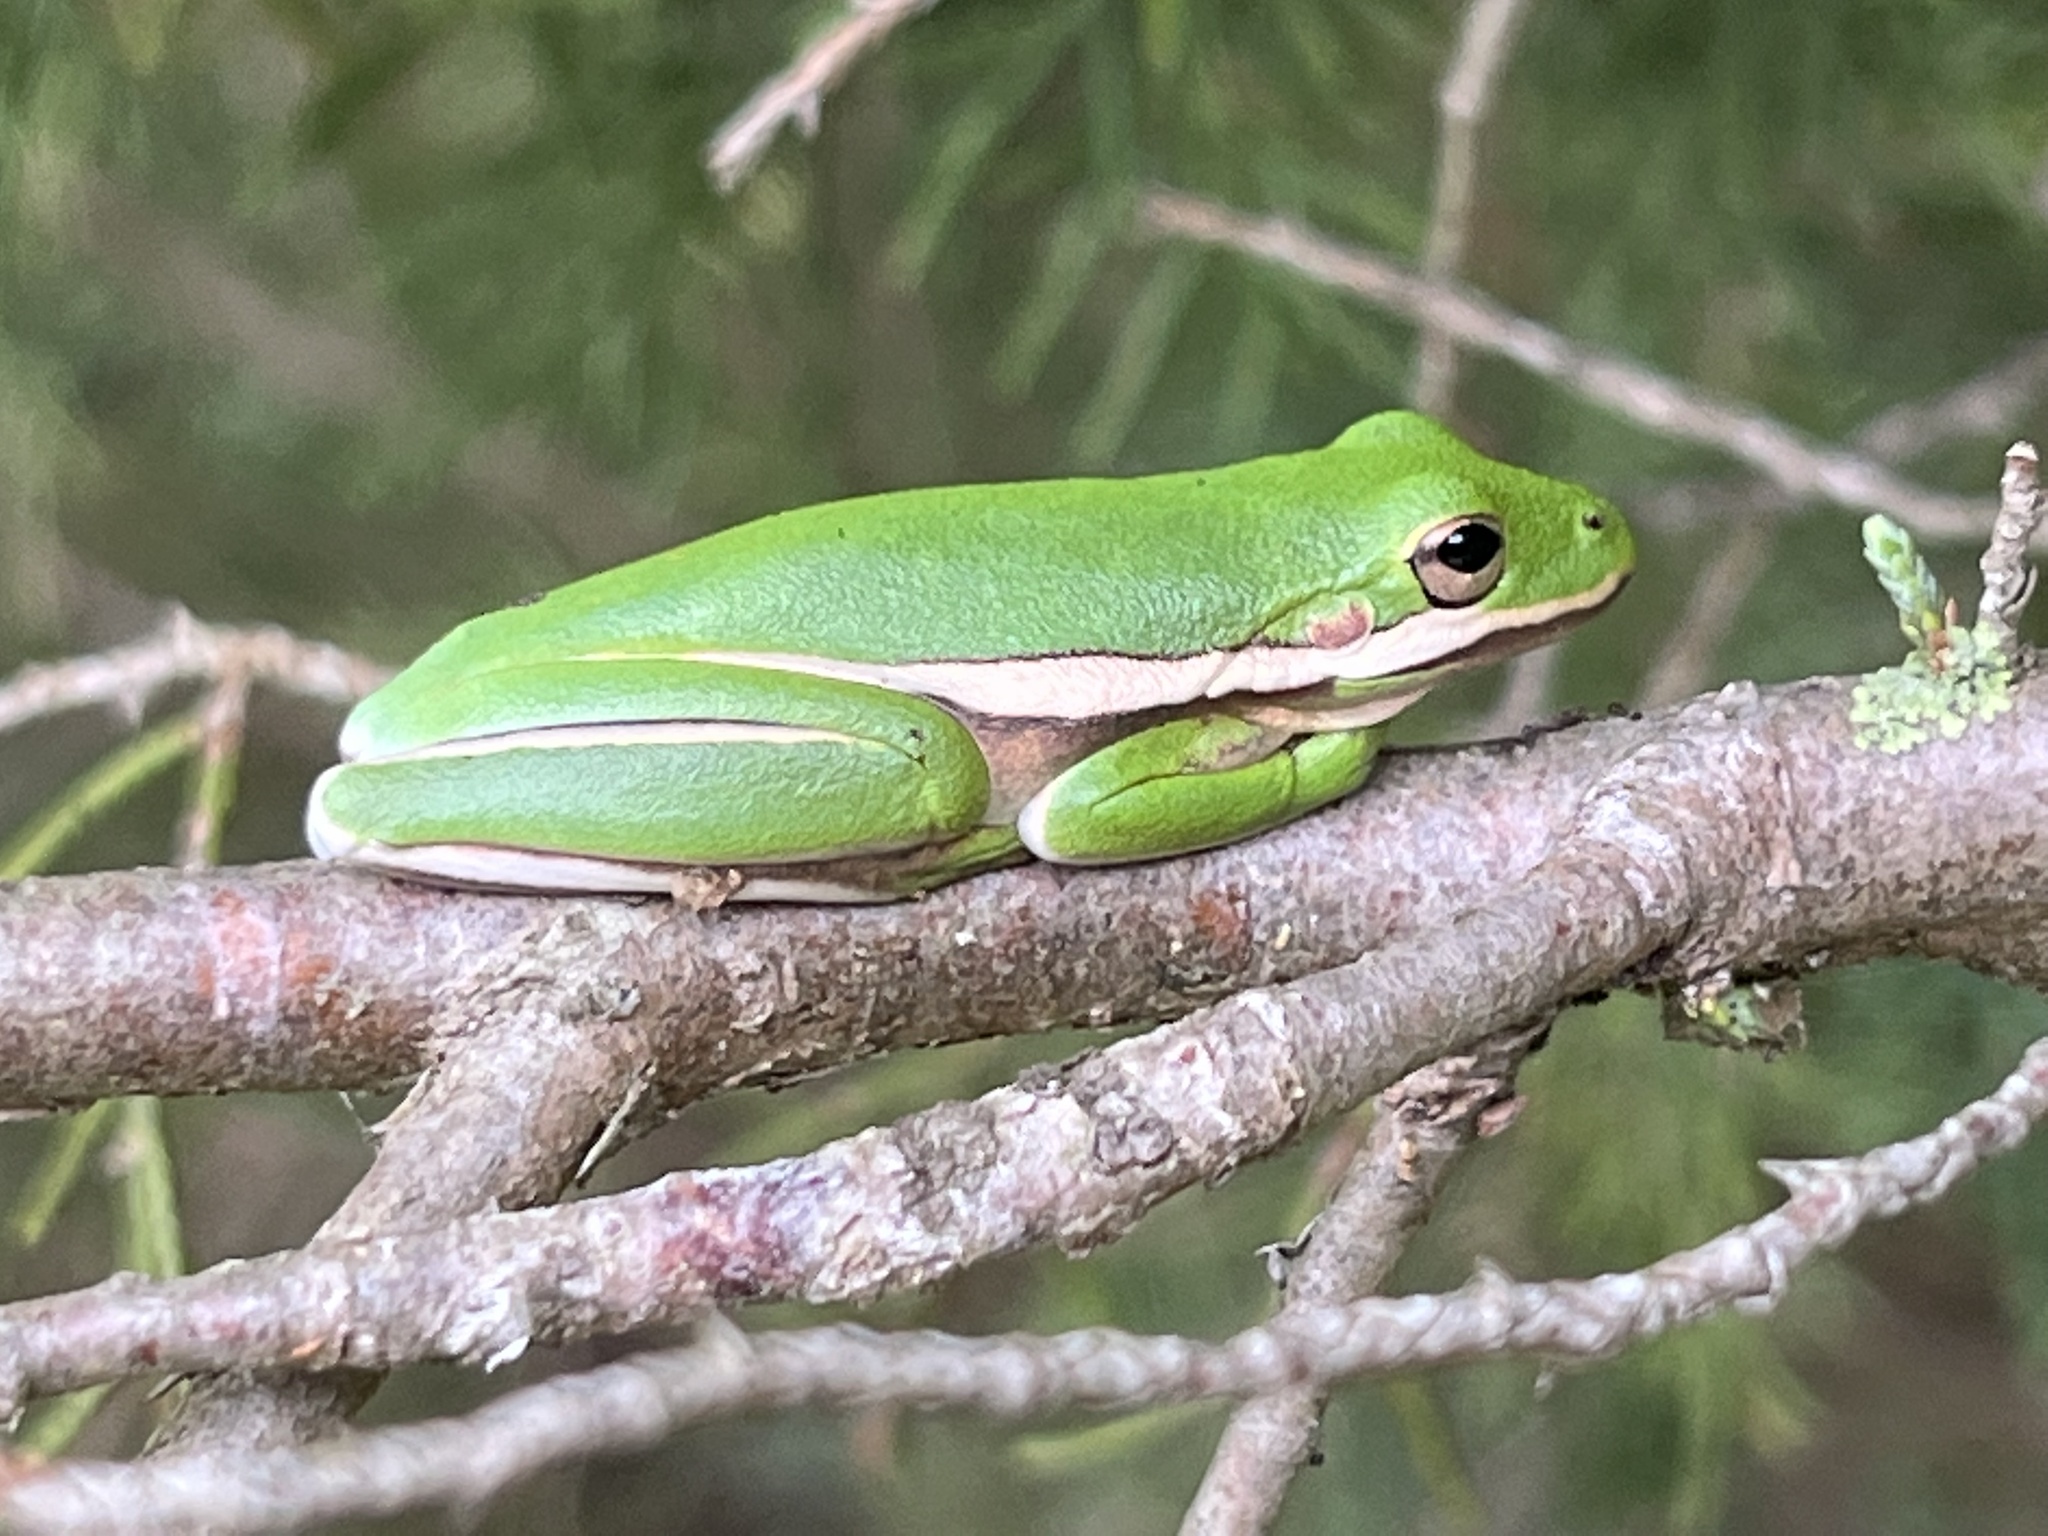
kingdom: Animalia
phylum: Chordata
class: Amphibia
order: Anura
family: Hylidae
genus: Dryophytes
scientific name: Dryophytes cinereus
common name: Green treefrog
